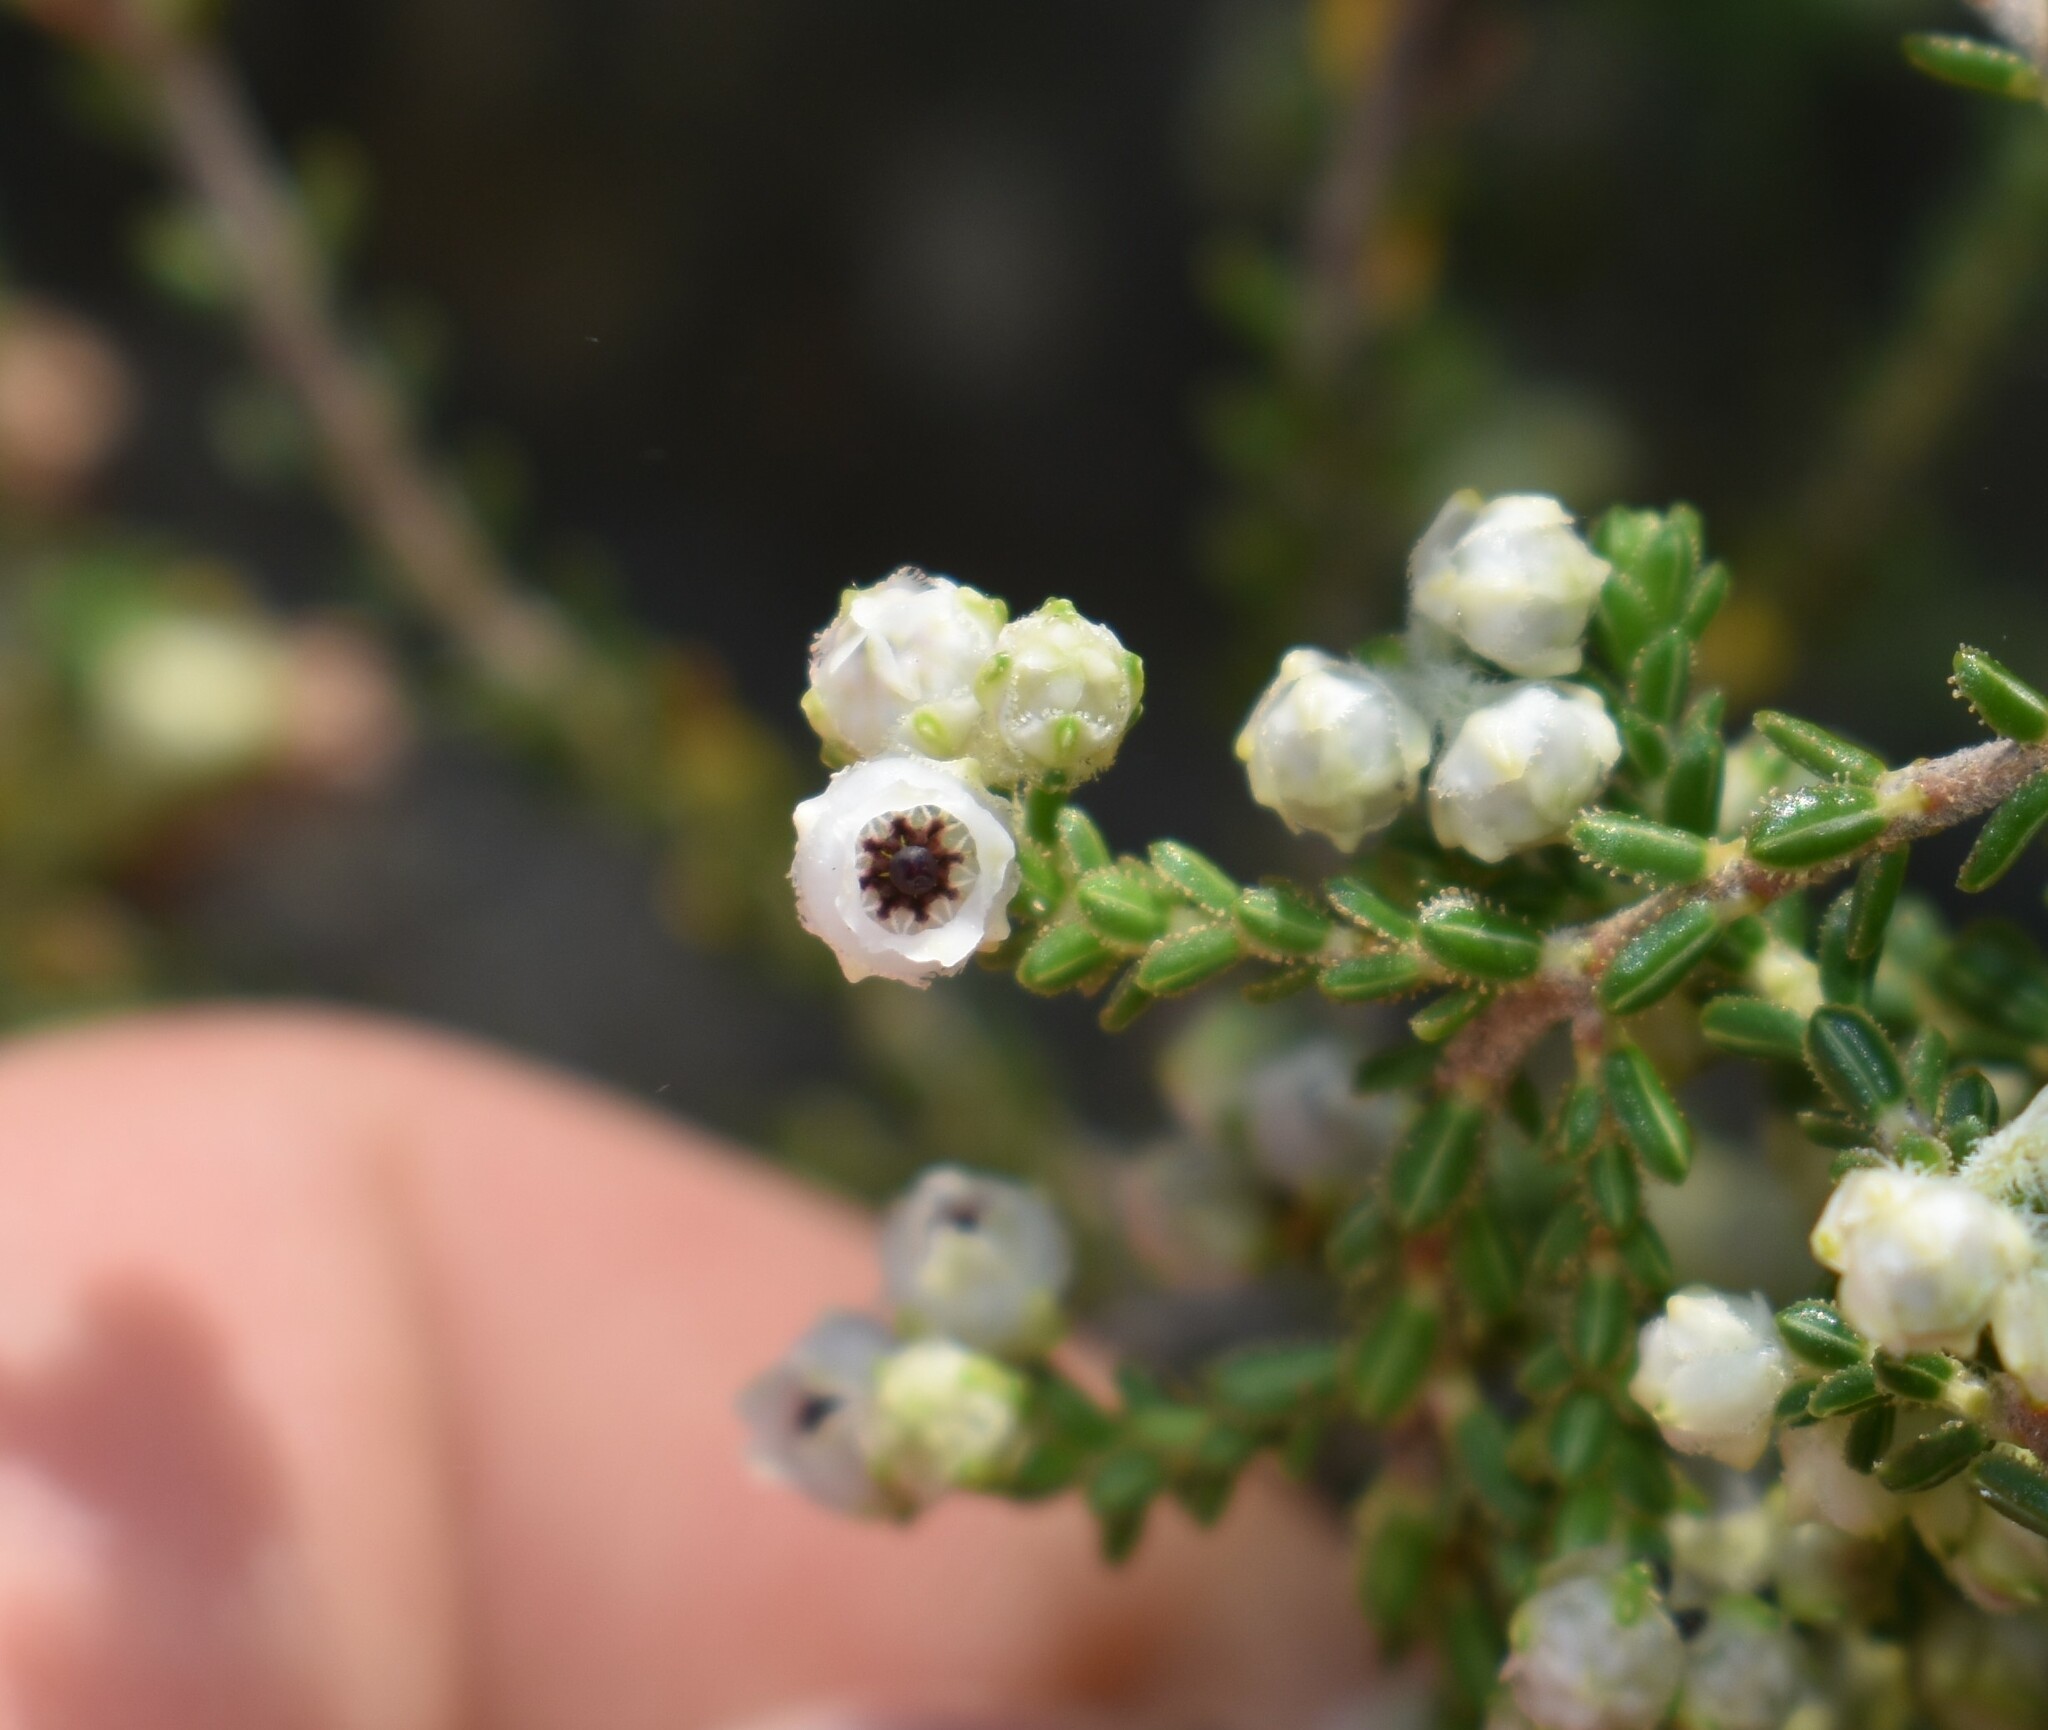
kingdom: Plantae
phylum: Tracheophyta
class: Magnoliopsida
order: Ericales
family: Ericaceae
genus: Erica
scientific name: Erica fimbriata
